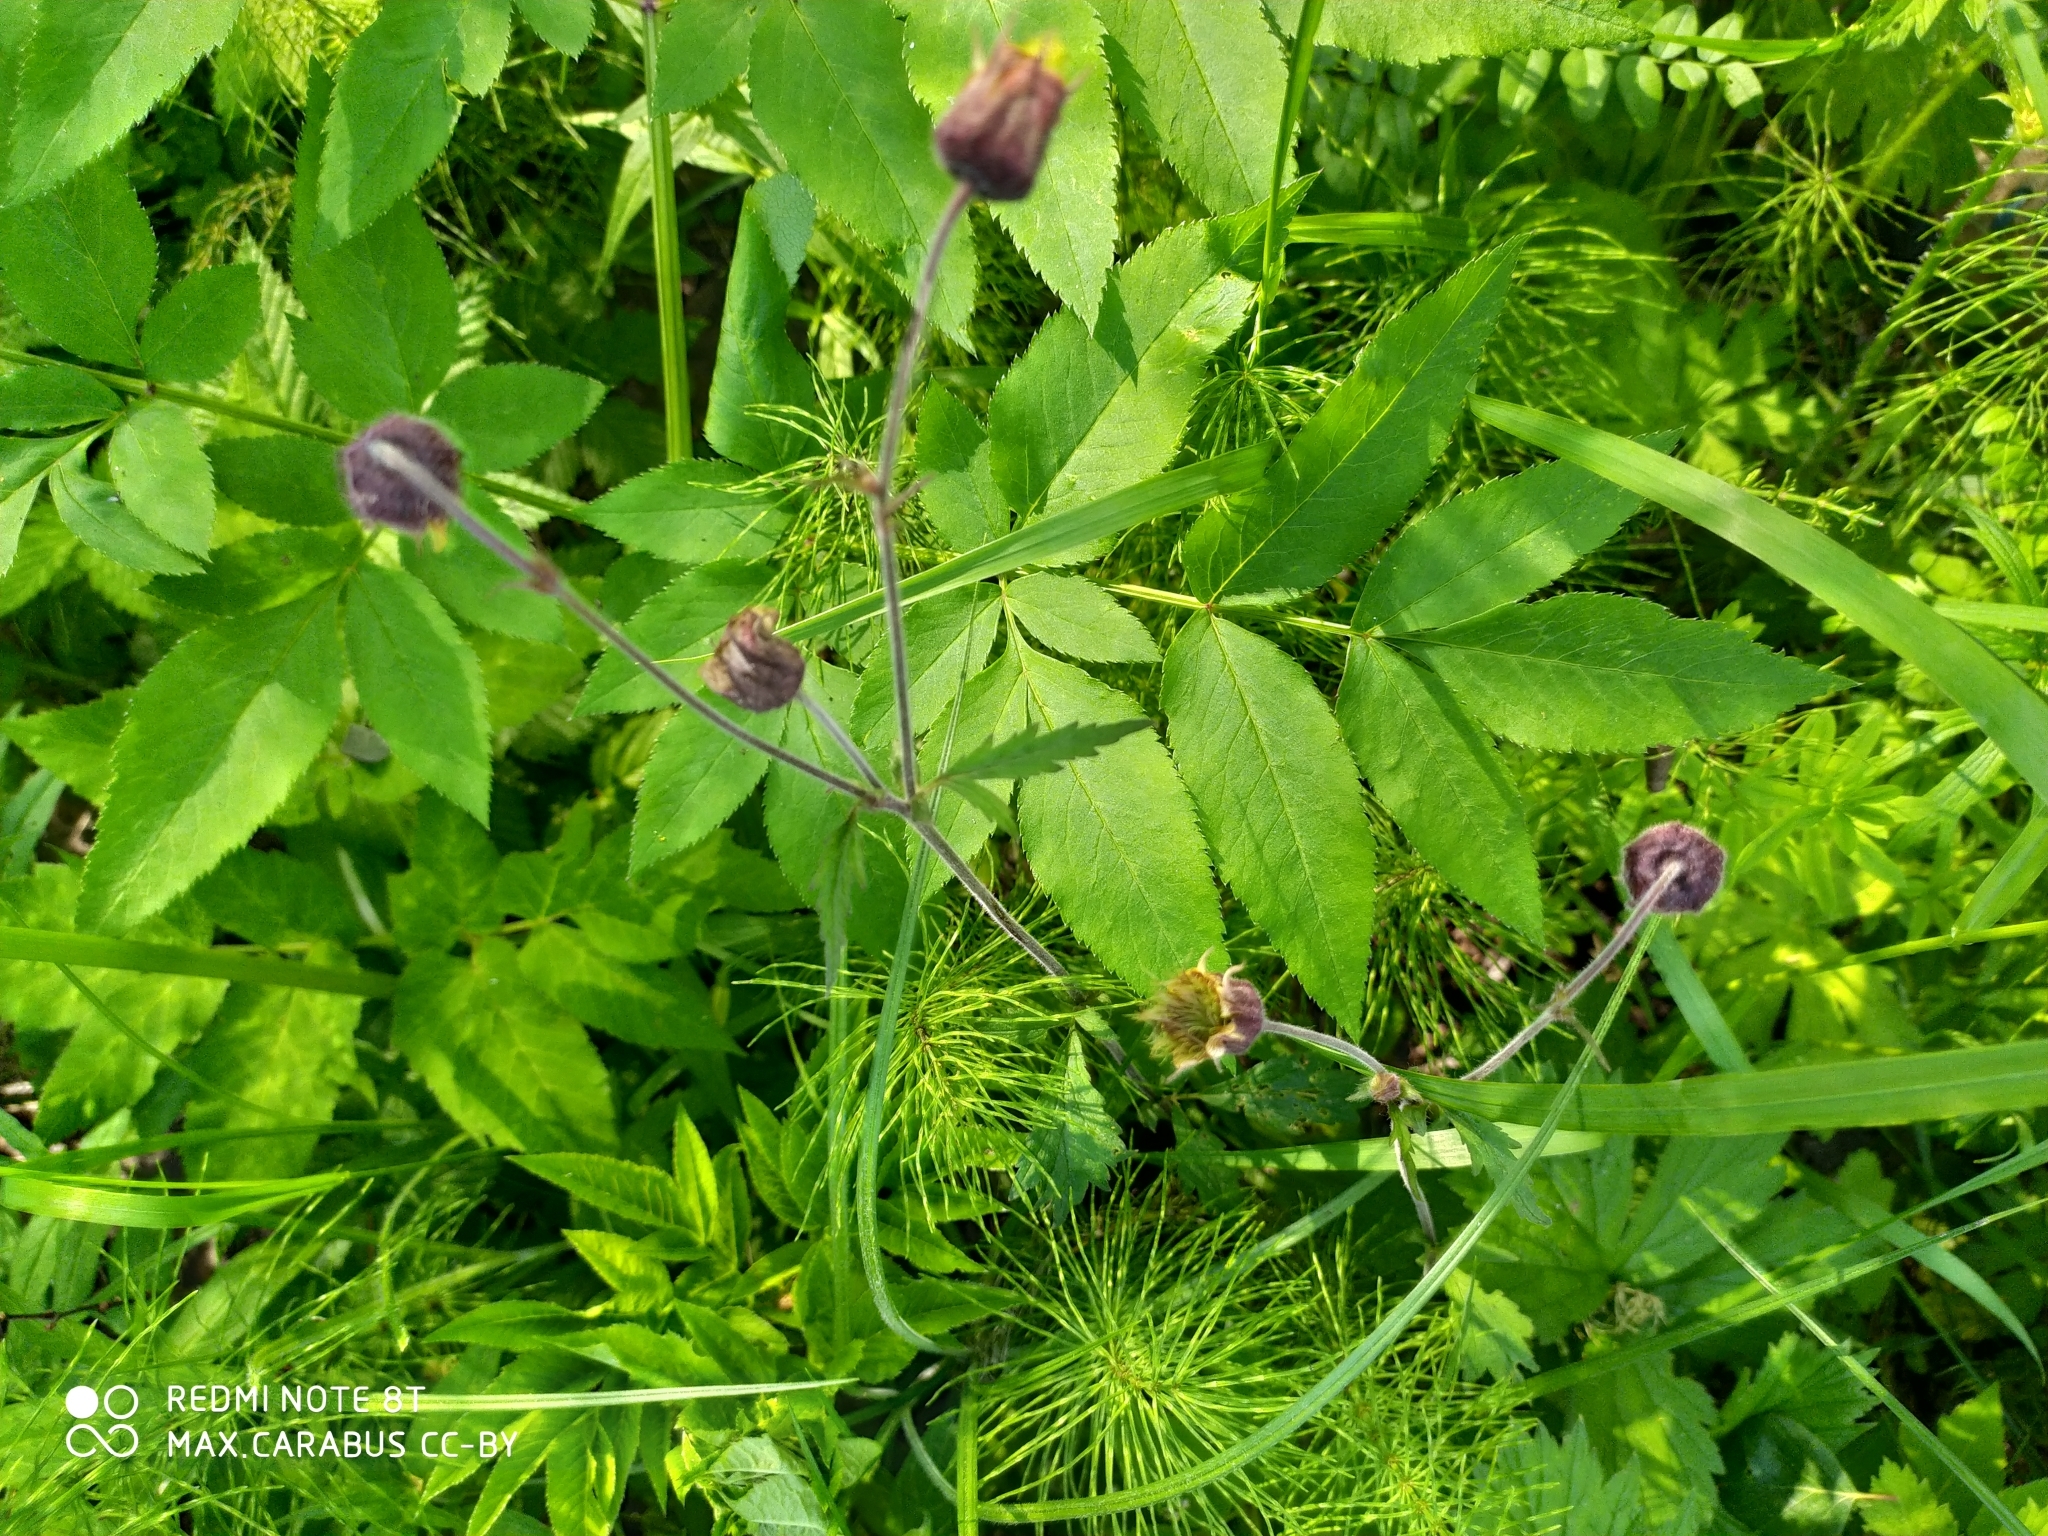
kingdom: Plantae
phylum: Tracheophyta
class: Magnoliopsida
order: Rosales
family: Rosaceae
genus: Geum
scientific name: Geum rivale
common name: Water avens
